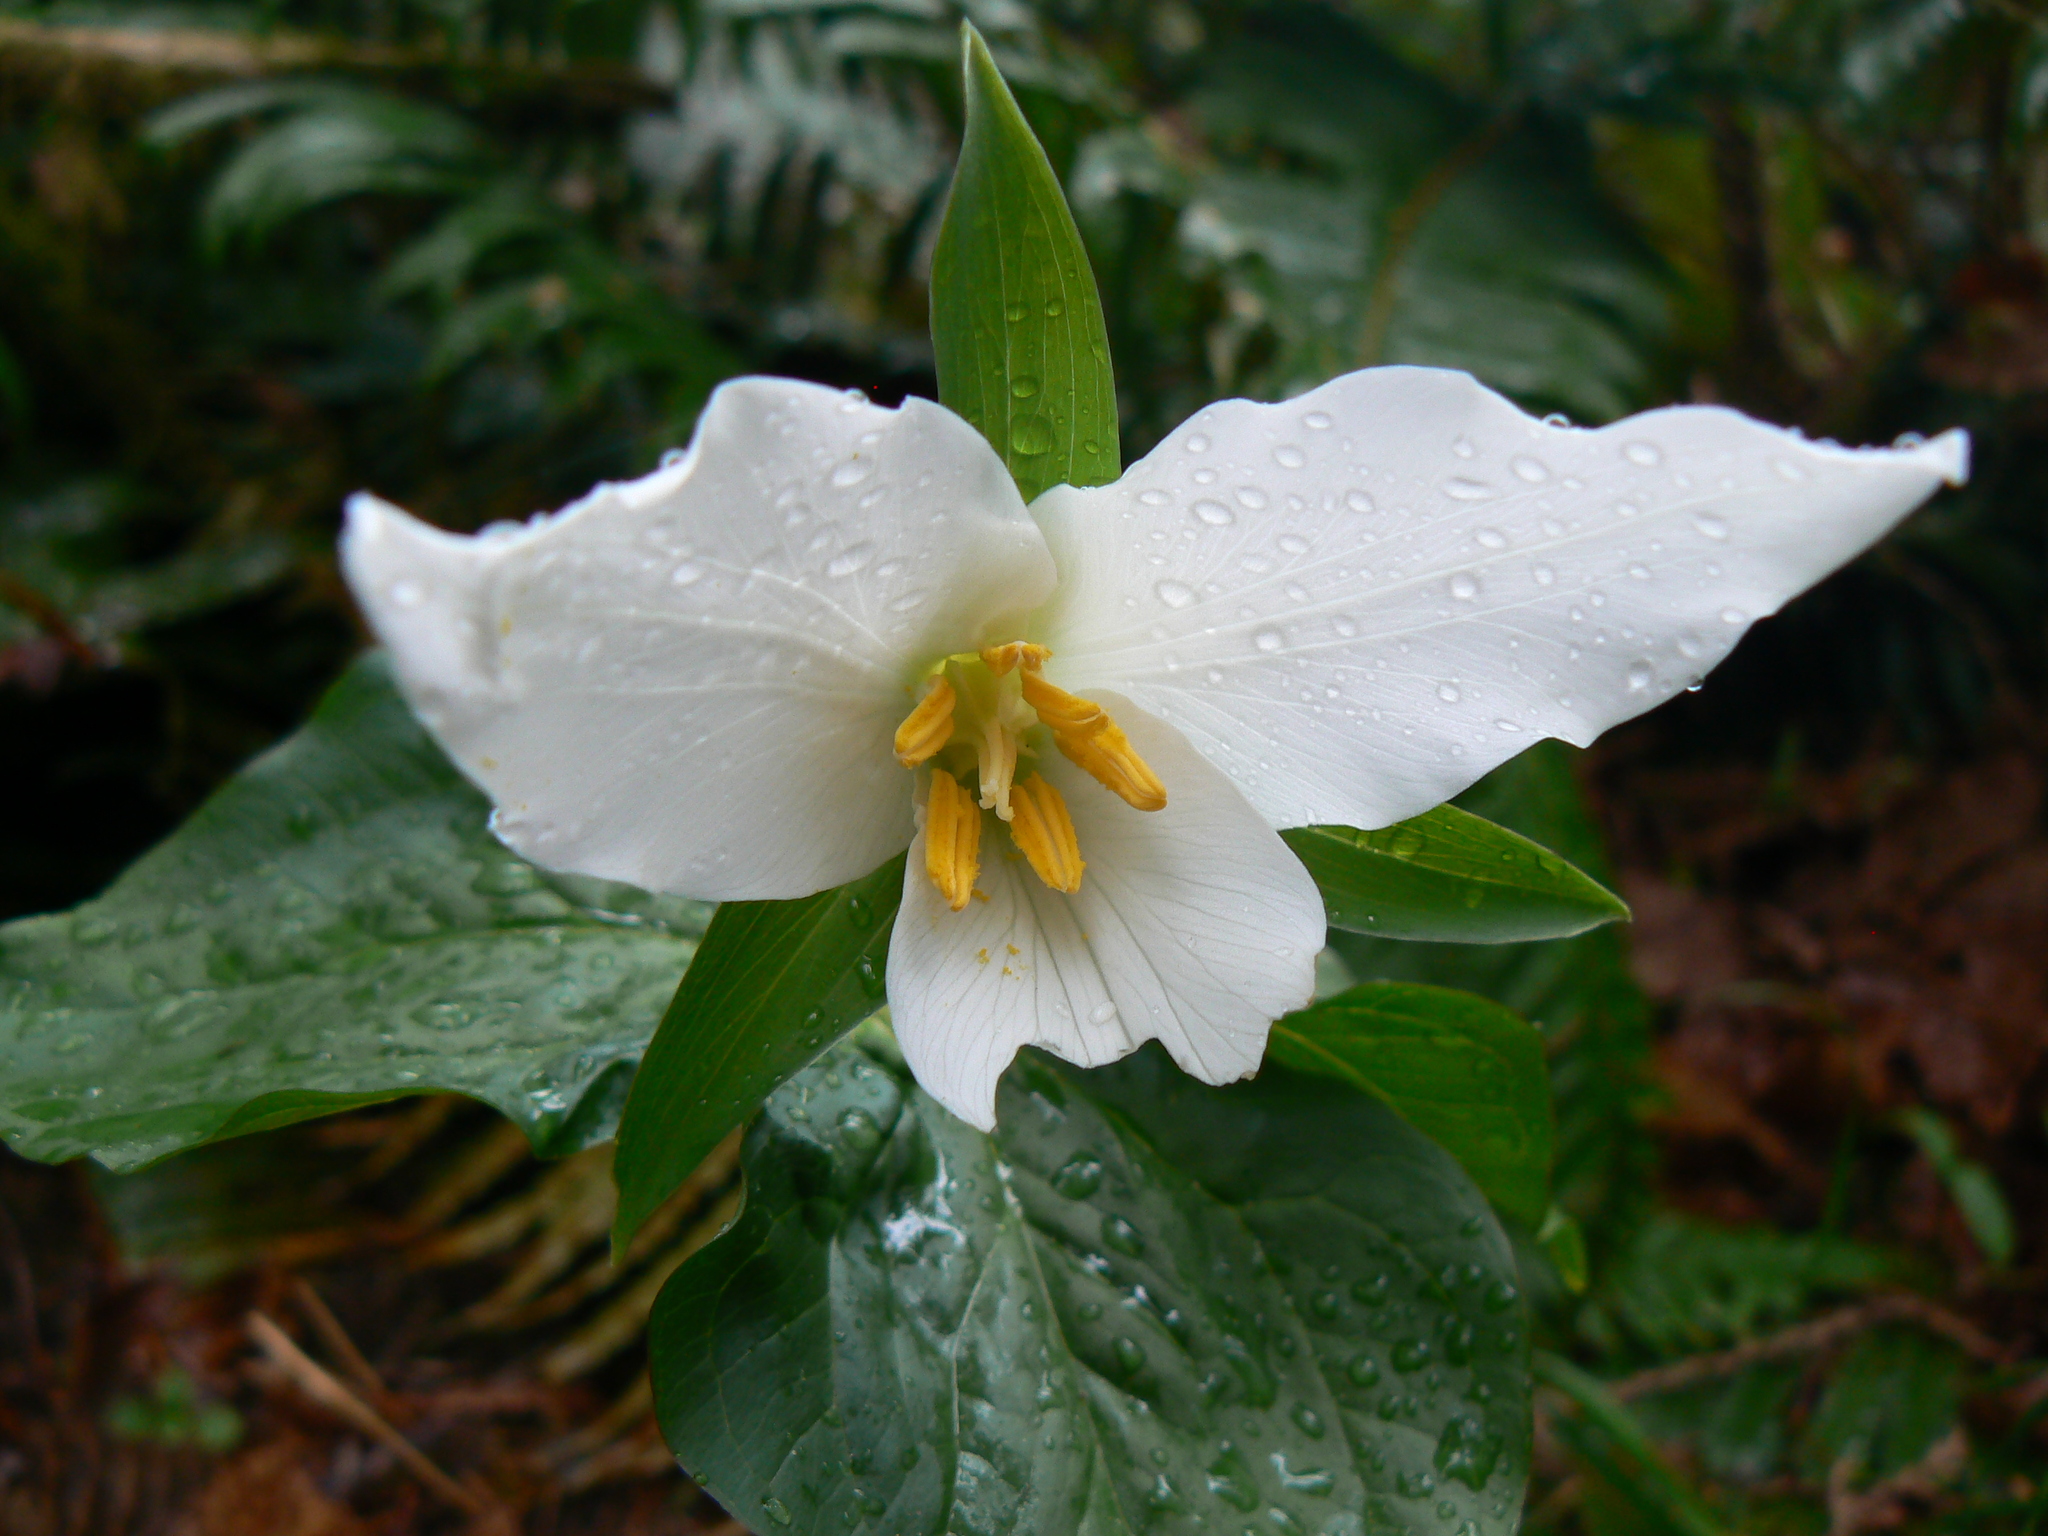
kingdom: Plantae
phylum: Tracheophyta
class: Liliopsida
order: Liliales
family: Melanthiaceae
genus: Trillium
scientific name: Trillium ovatum
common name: Pacific trillium
